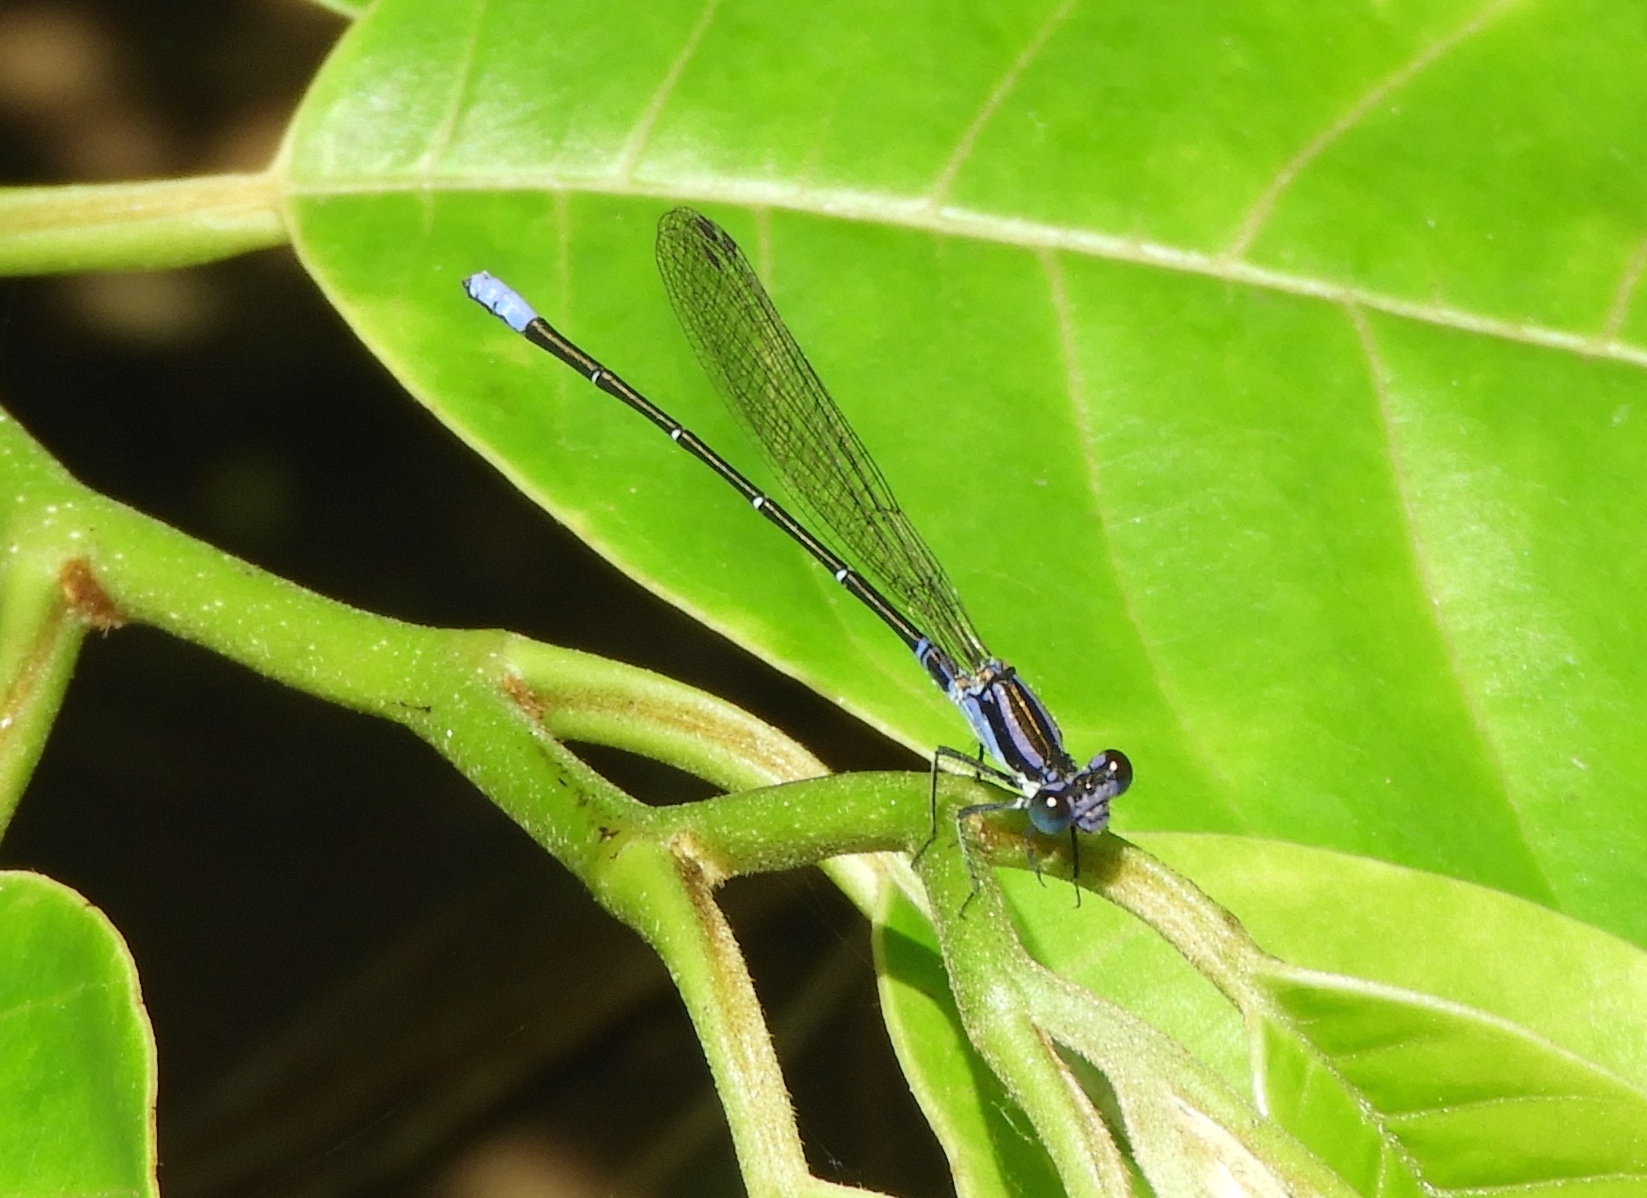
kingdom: Animalia
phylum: Arthropoda
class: Insecta
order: Odonata
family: Coenagrionidae
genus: Argia
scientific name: Argia pulla
